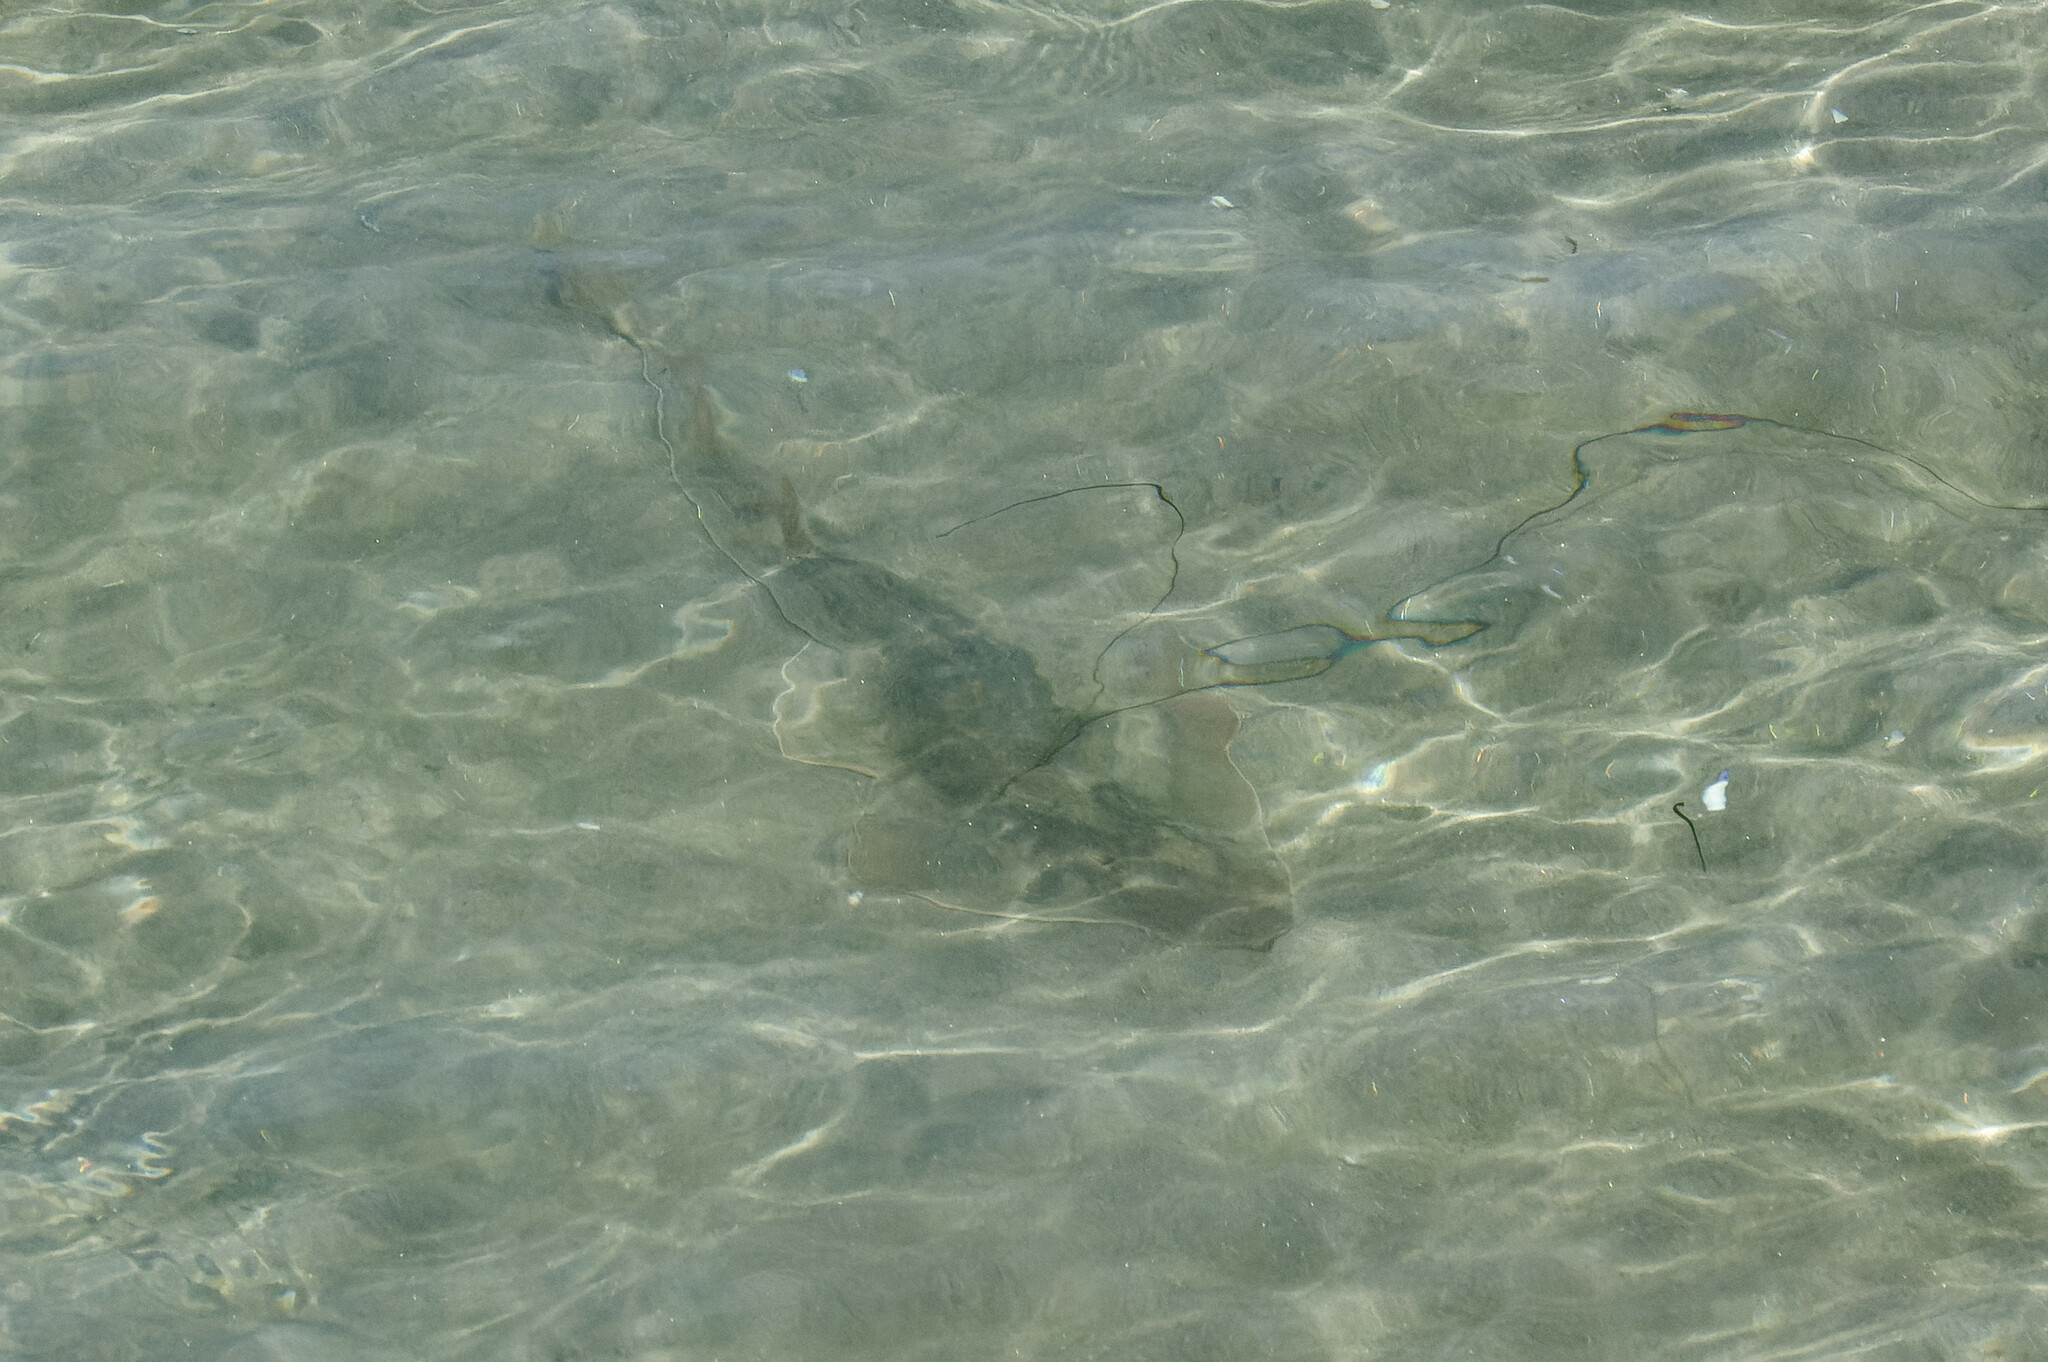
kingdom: Animalia
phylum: Chordata
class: Elasmobranchii
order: Rhinopristiformes
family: Rhinobatidae
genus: Pseudobatos
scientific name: Pseudobatos productus
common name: Shovelnose guitarfish
